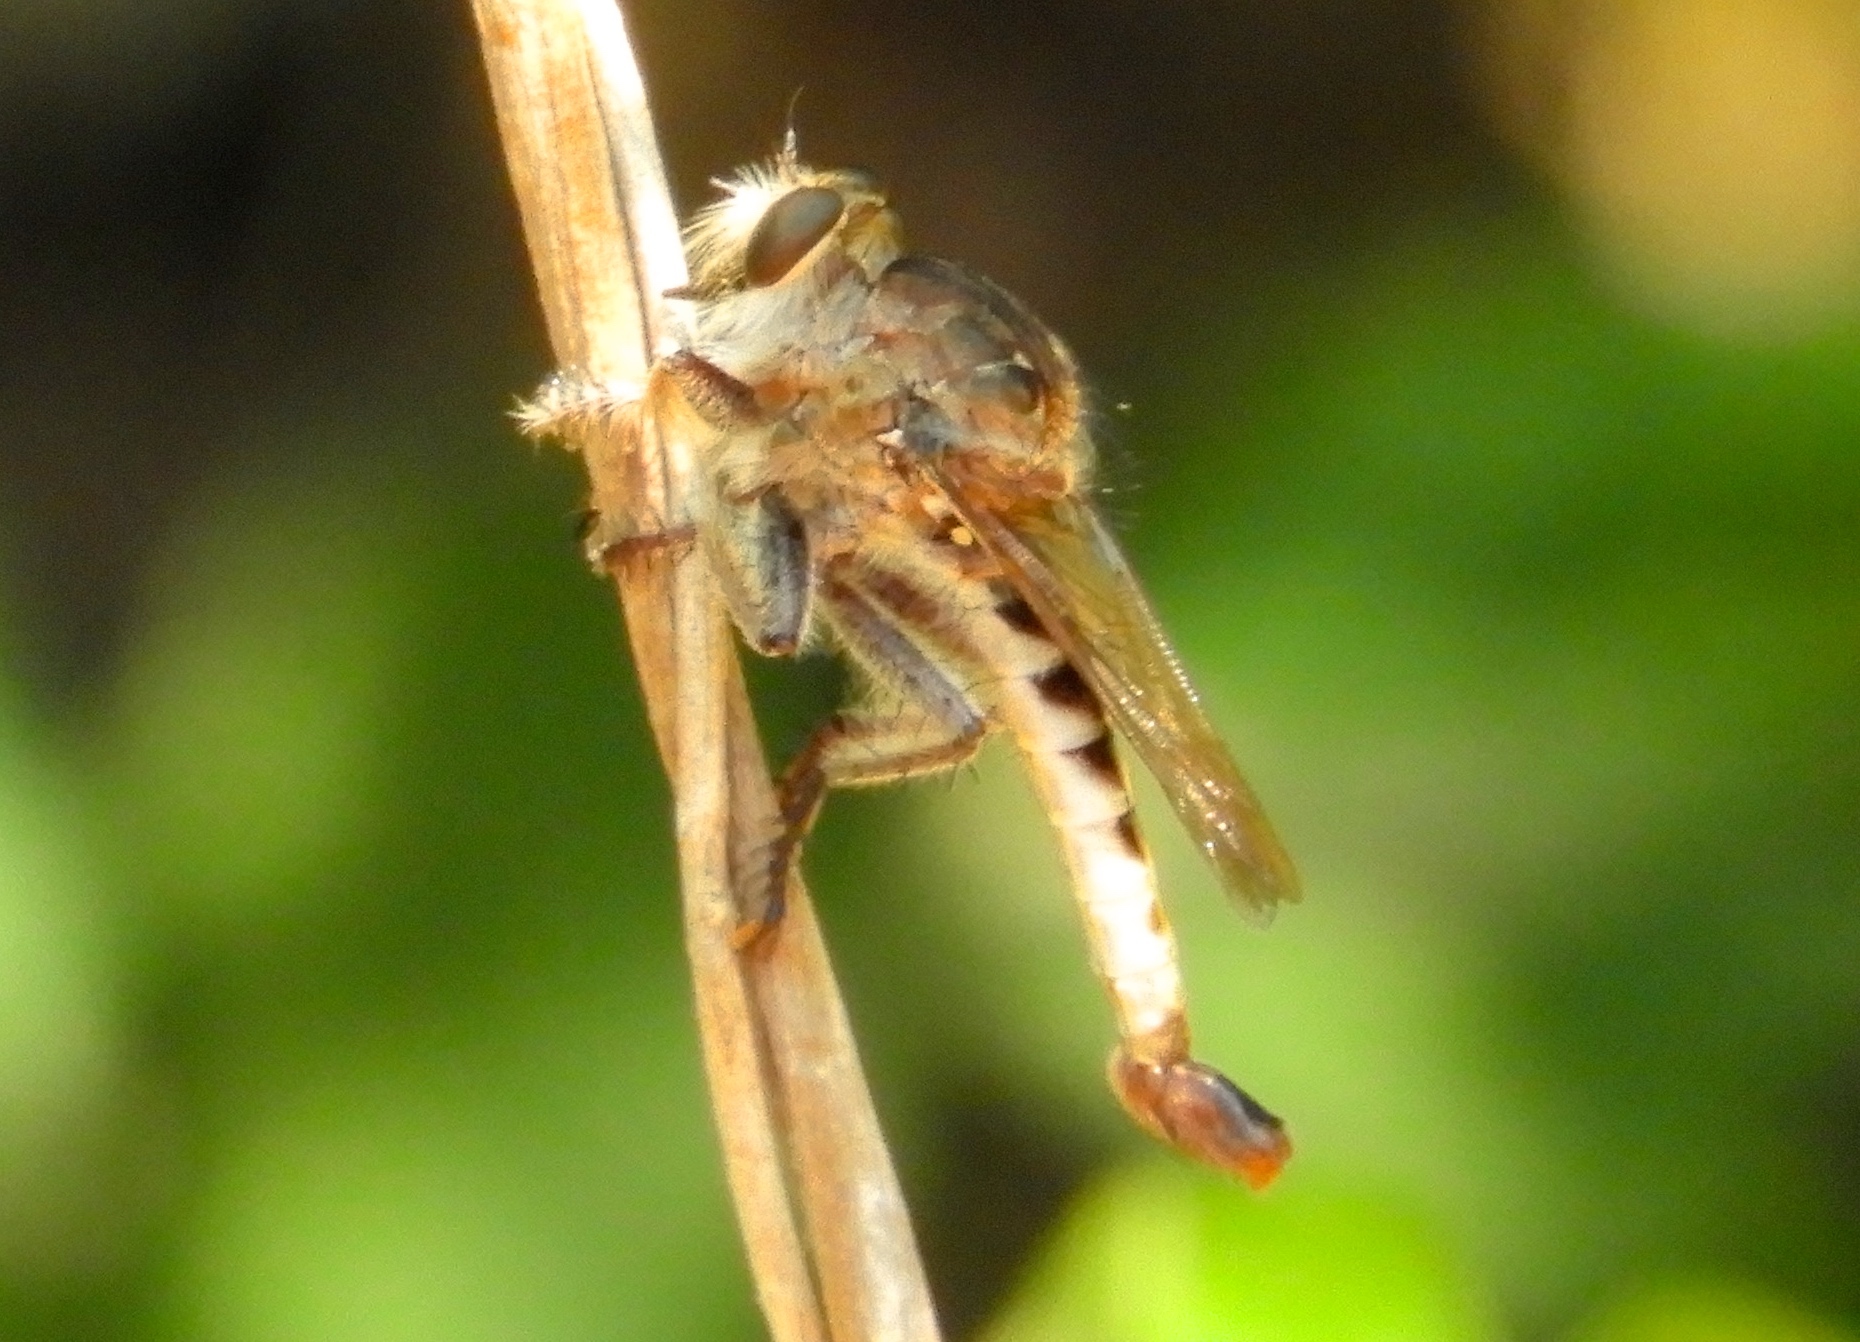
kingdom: Animalia
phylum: Arthropoda
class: Insecta
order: Diptera
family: Asilidae
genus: Efferia
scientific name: Efferia
